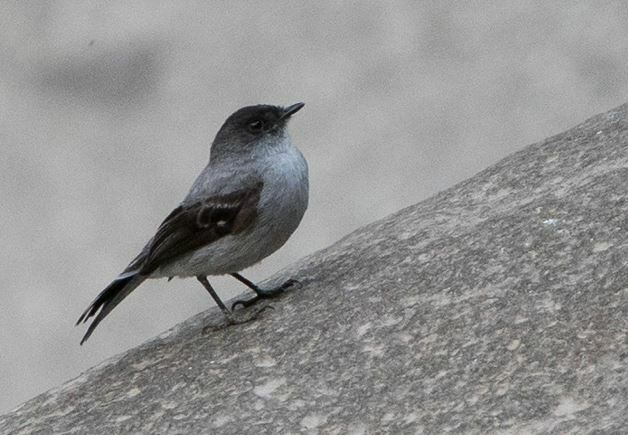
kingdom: Animalia
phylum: Chordata
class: Aves
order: Passeriformes
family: Tyrannidae
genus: Serpophaga
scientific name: Serpophaga cinerea
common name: Torrent tyrannulet
